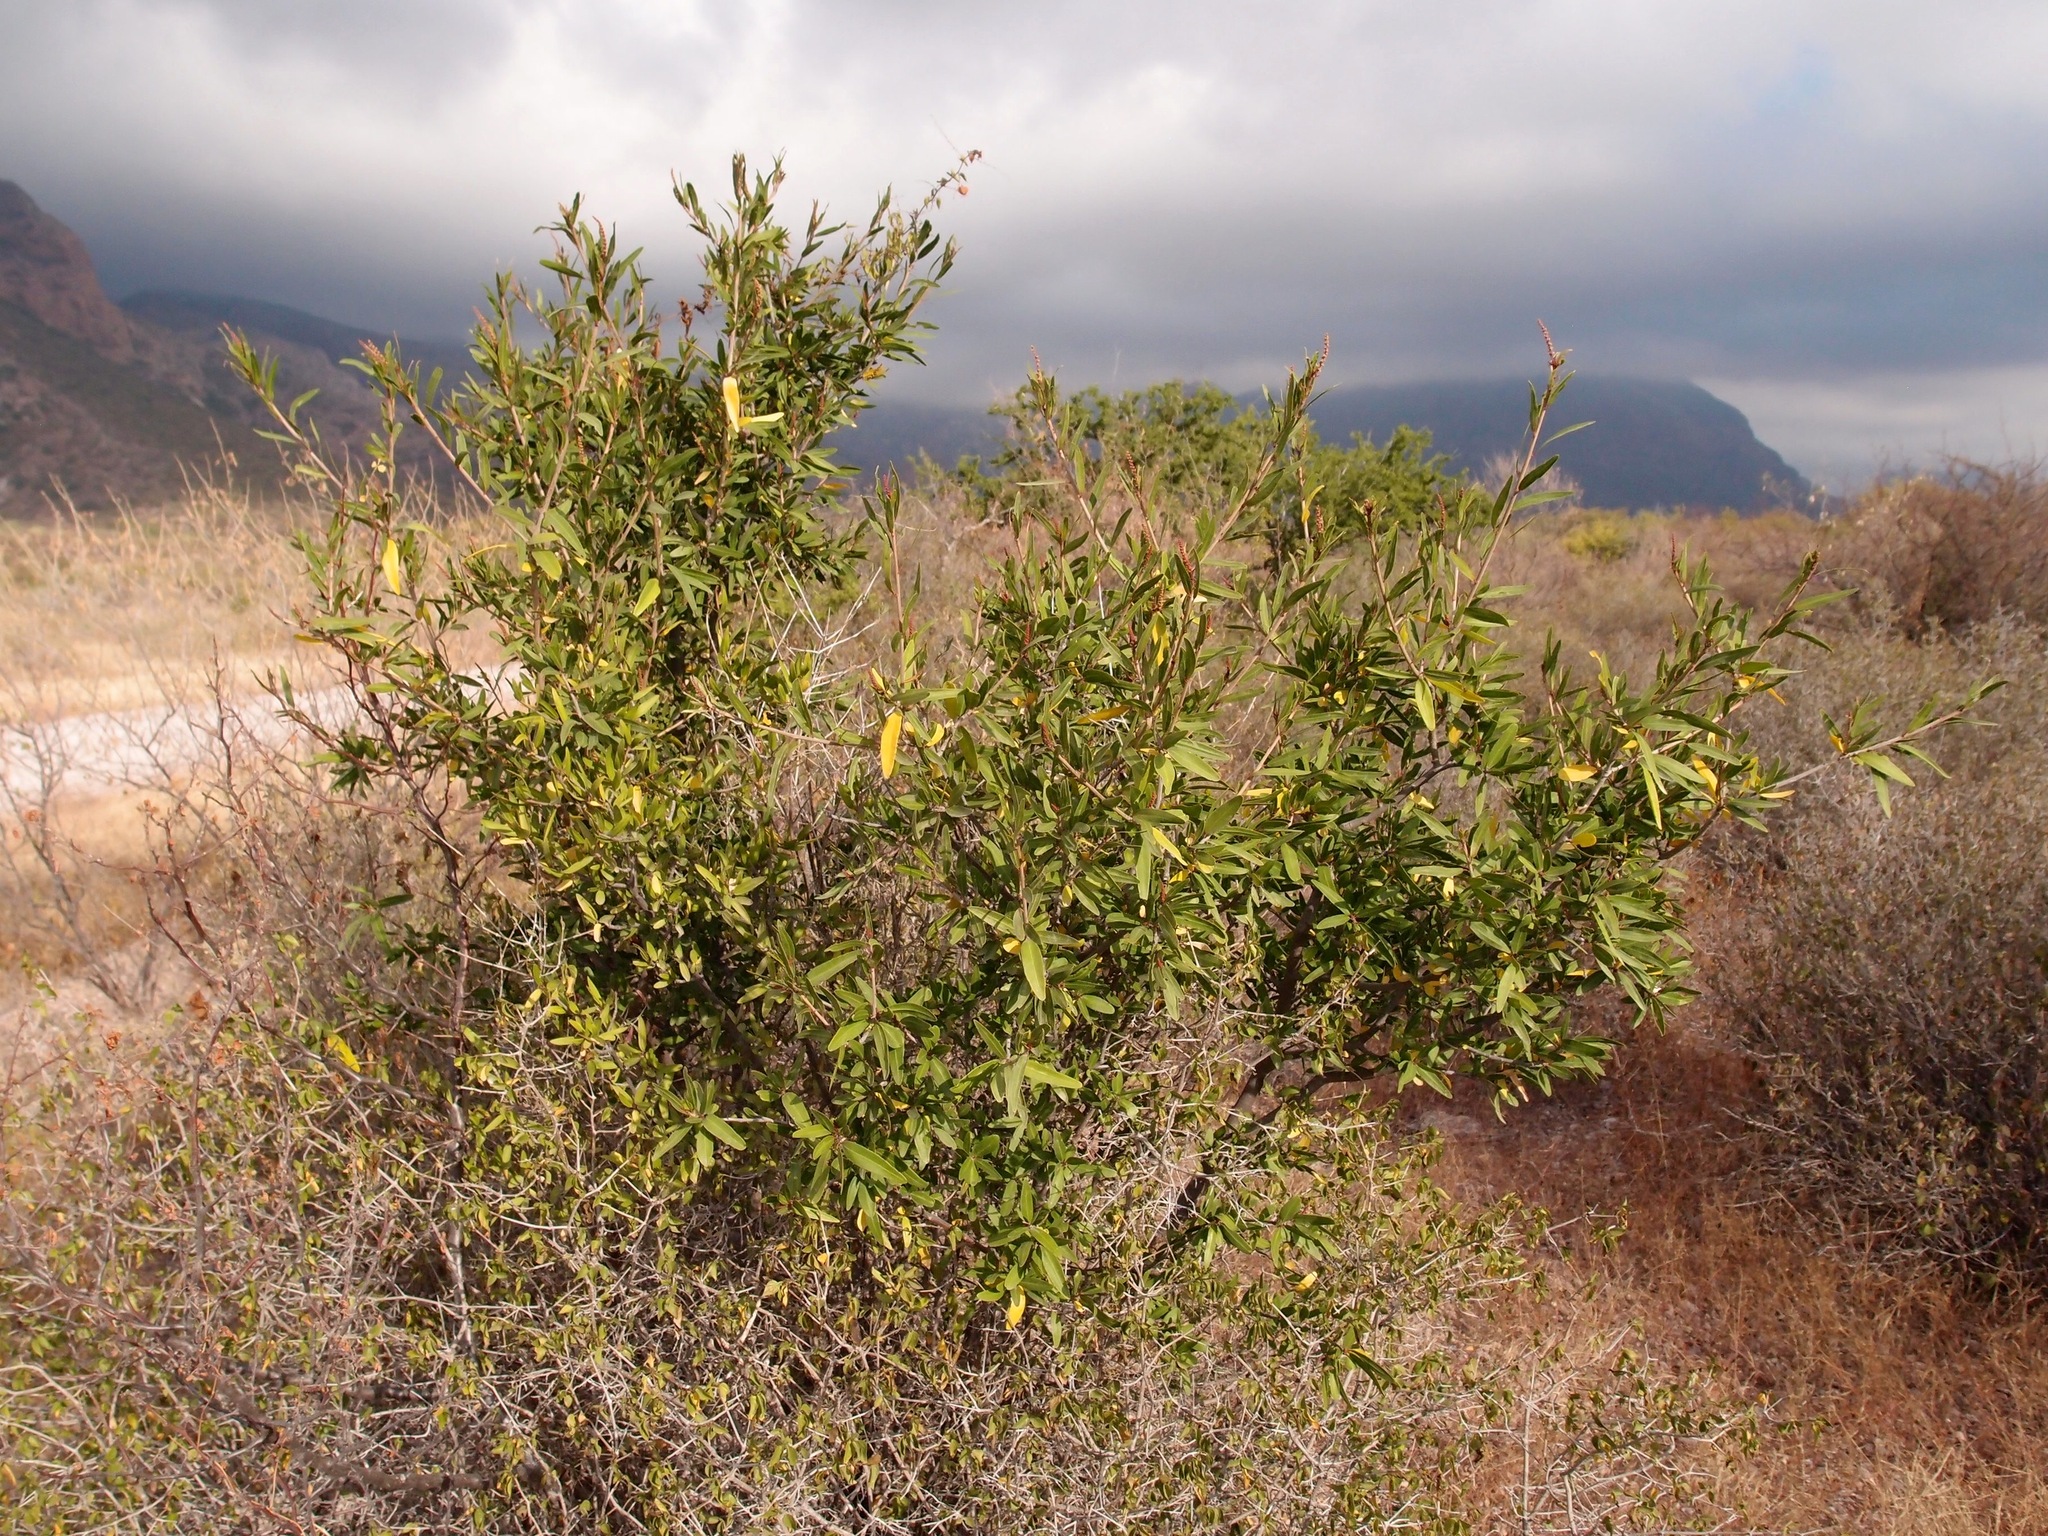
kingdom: Plantae
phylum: Tracheophyta
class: Magnoliopsida
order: Malpighiales
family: Euphorbiaceae
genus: Pleradenophora
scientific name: Pleradenophora bilocularis
